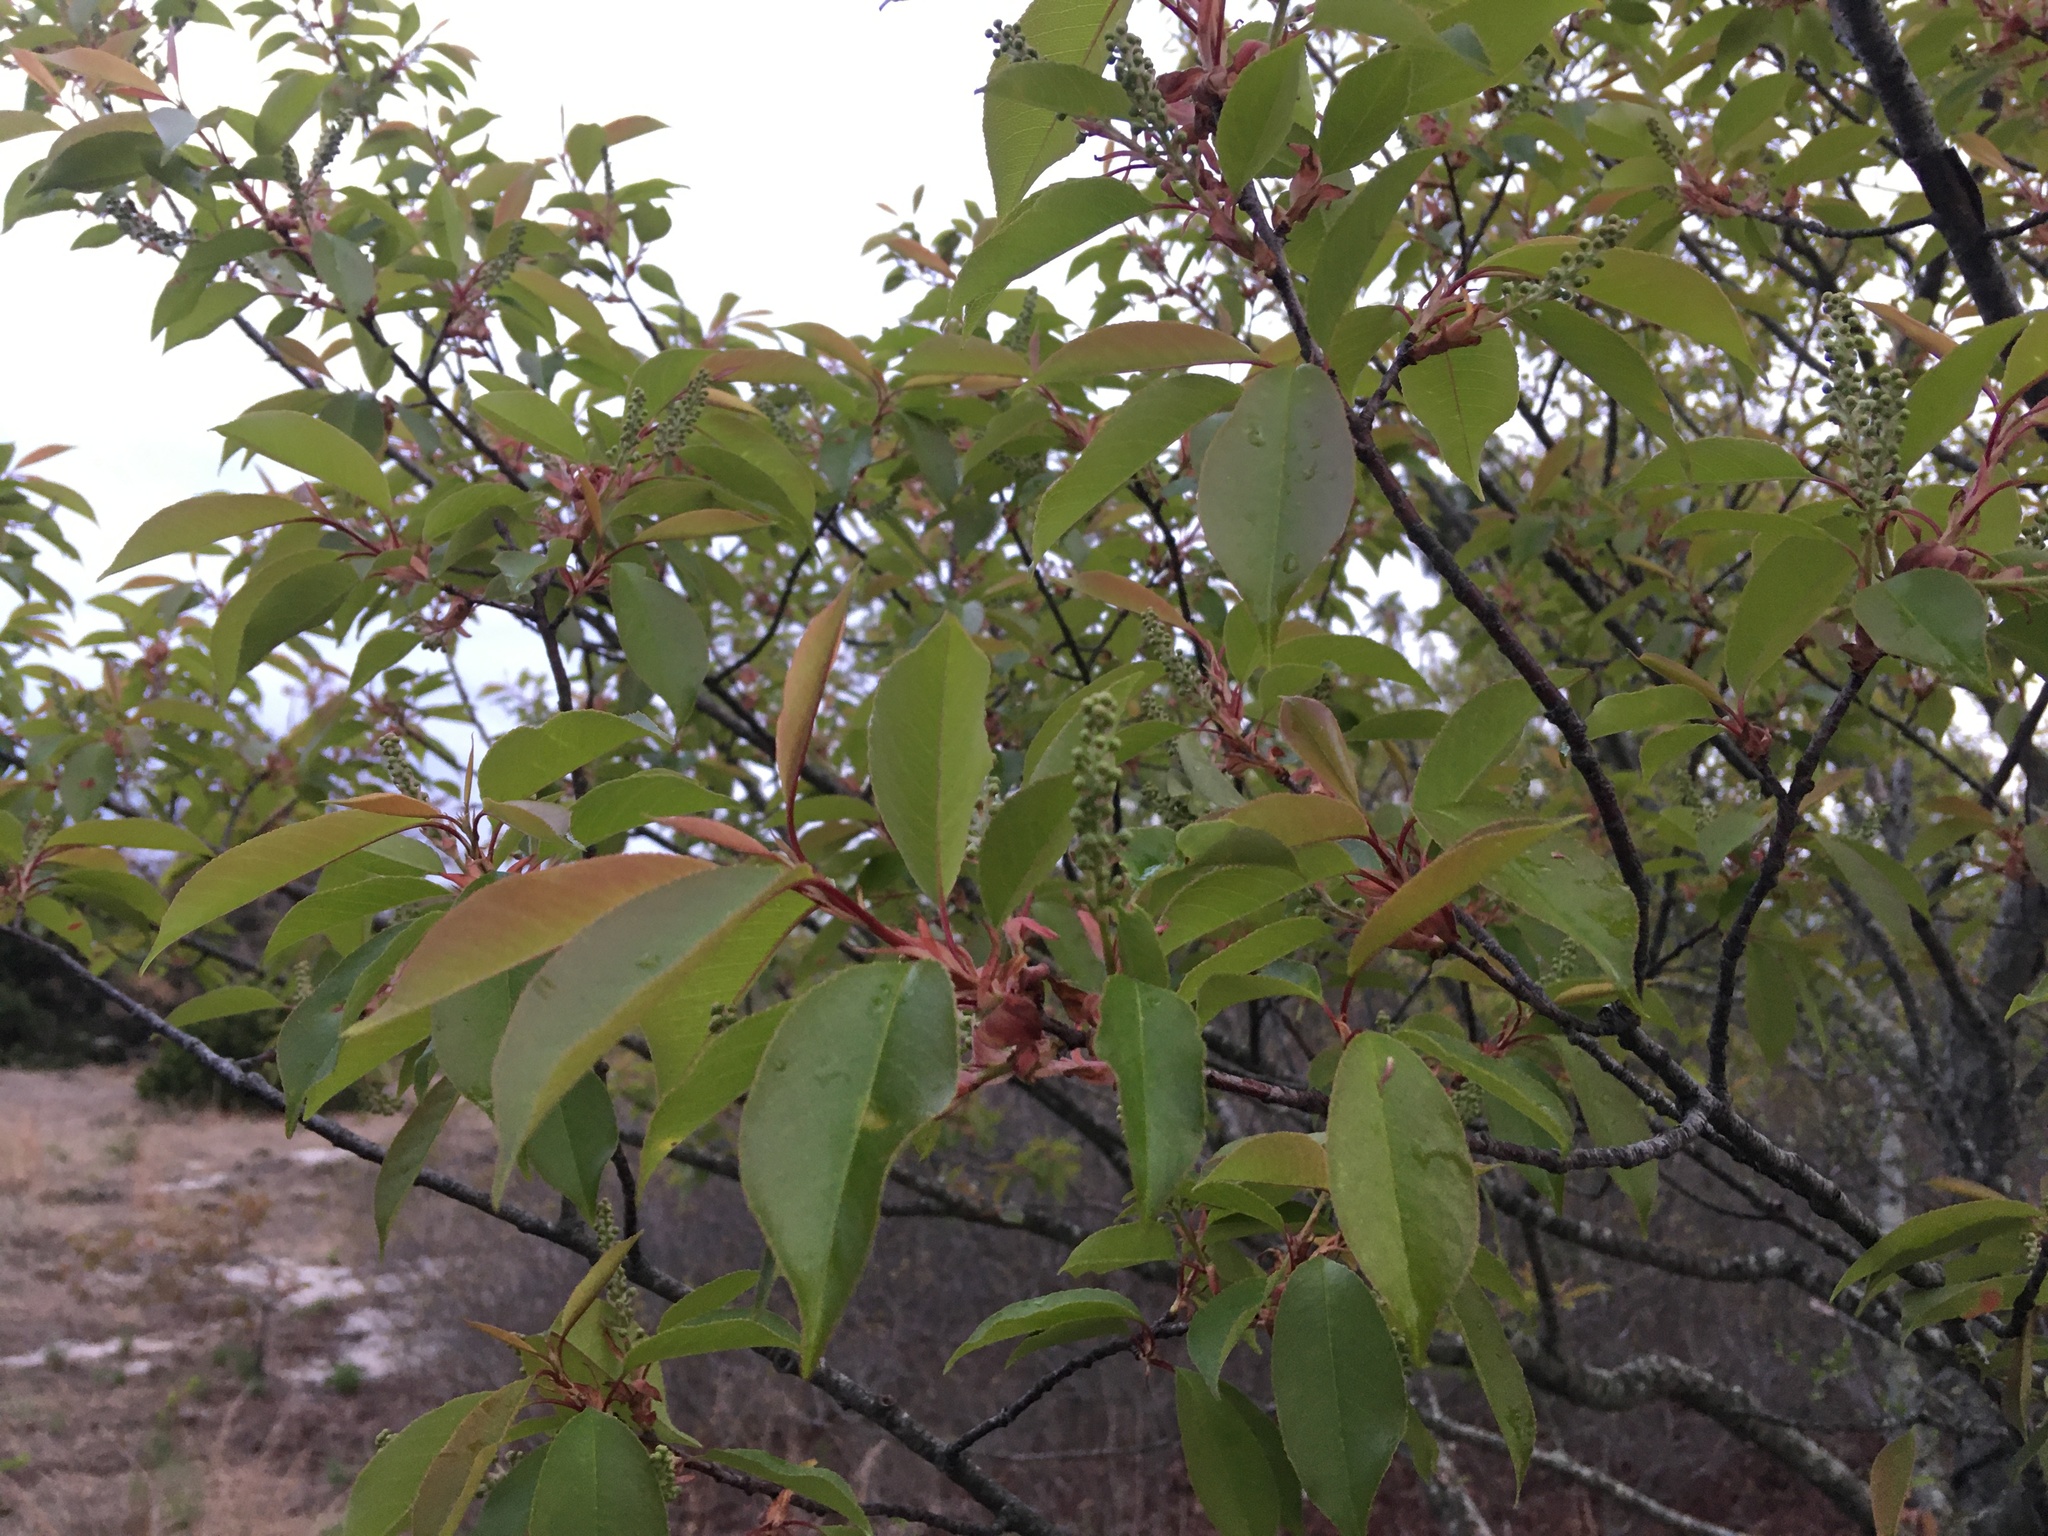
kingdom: Plantae
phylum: Tracheophyta
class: Magnoliopsida
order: Rosales
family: Rosaceae
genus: Prunus
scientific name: Prunus serotina
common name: Black cherry
